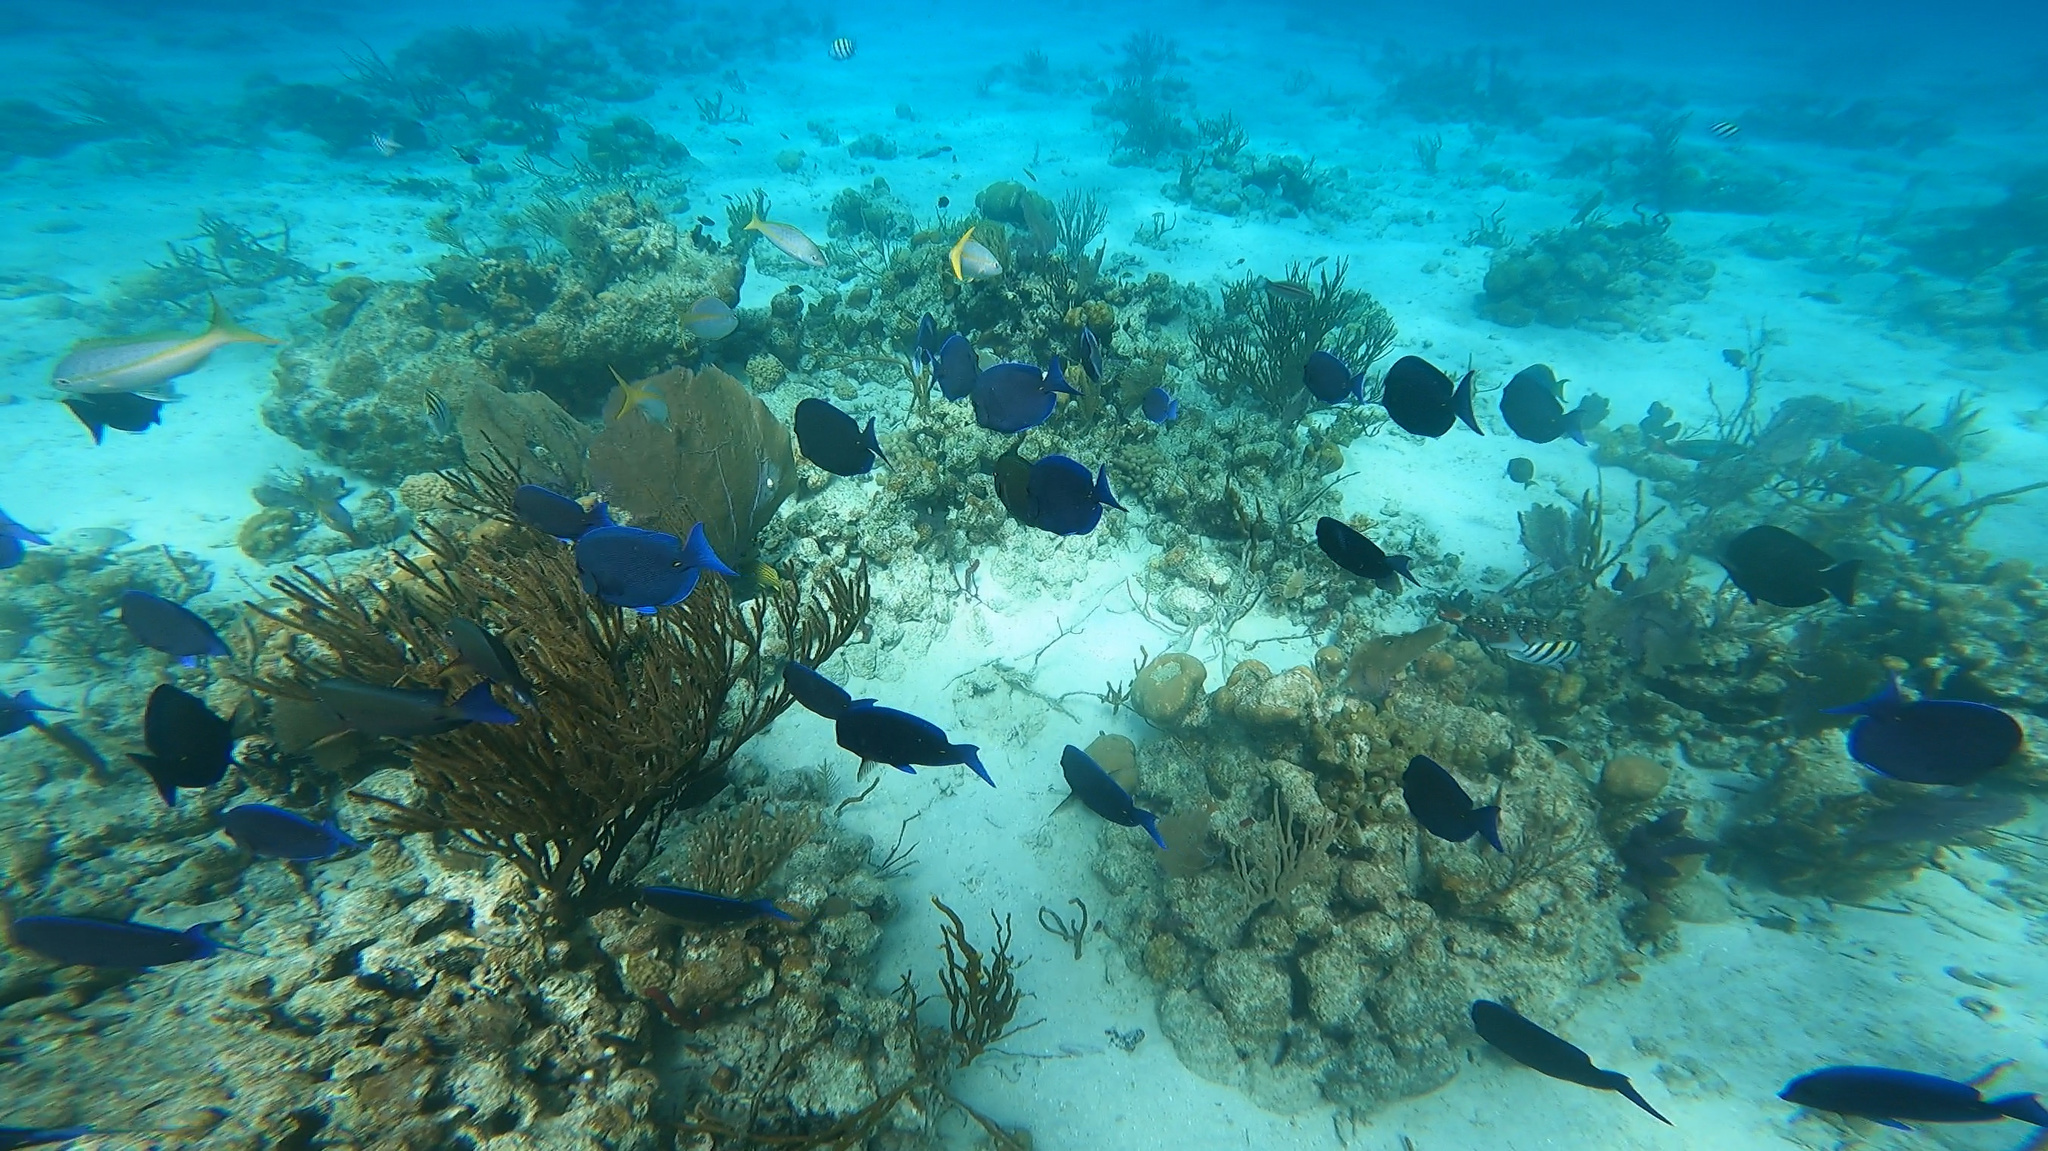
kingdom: Animalia
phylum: Chordata
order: Perciformes
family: Acanthuridae
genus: Acanthurus
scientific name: Acanthurus coeruleus
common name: Blue tang
